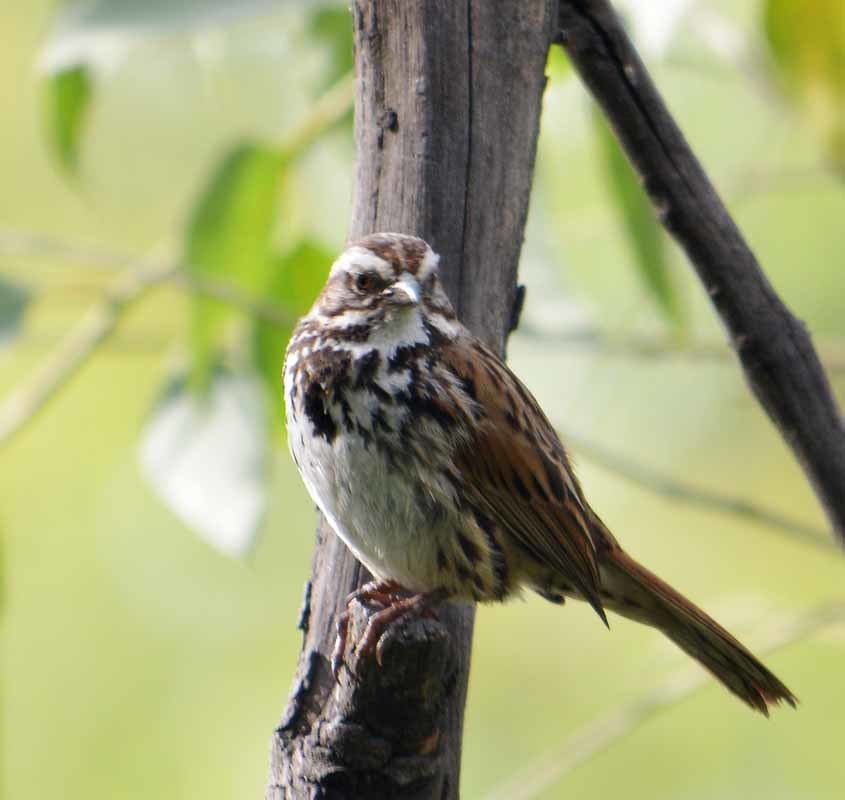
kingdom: Animalia
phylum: Chordata
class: Aves
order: Passeriformes
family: Passerellidae
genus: Melospiza
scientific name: Melospiza melodia
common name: Song sparrow
